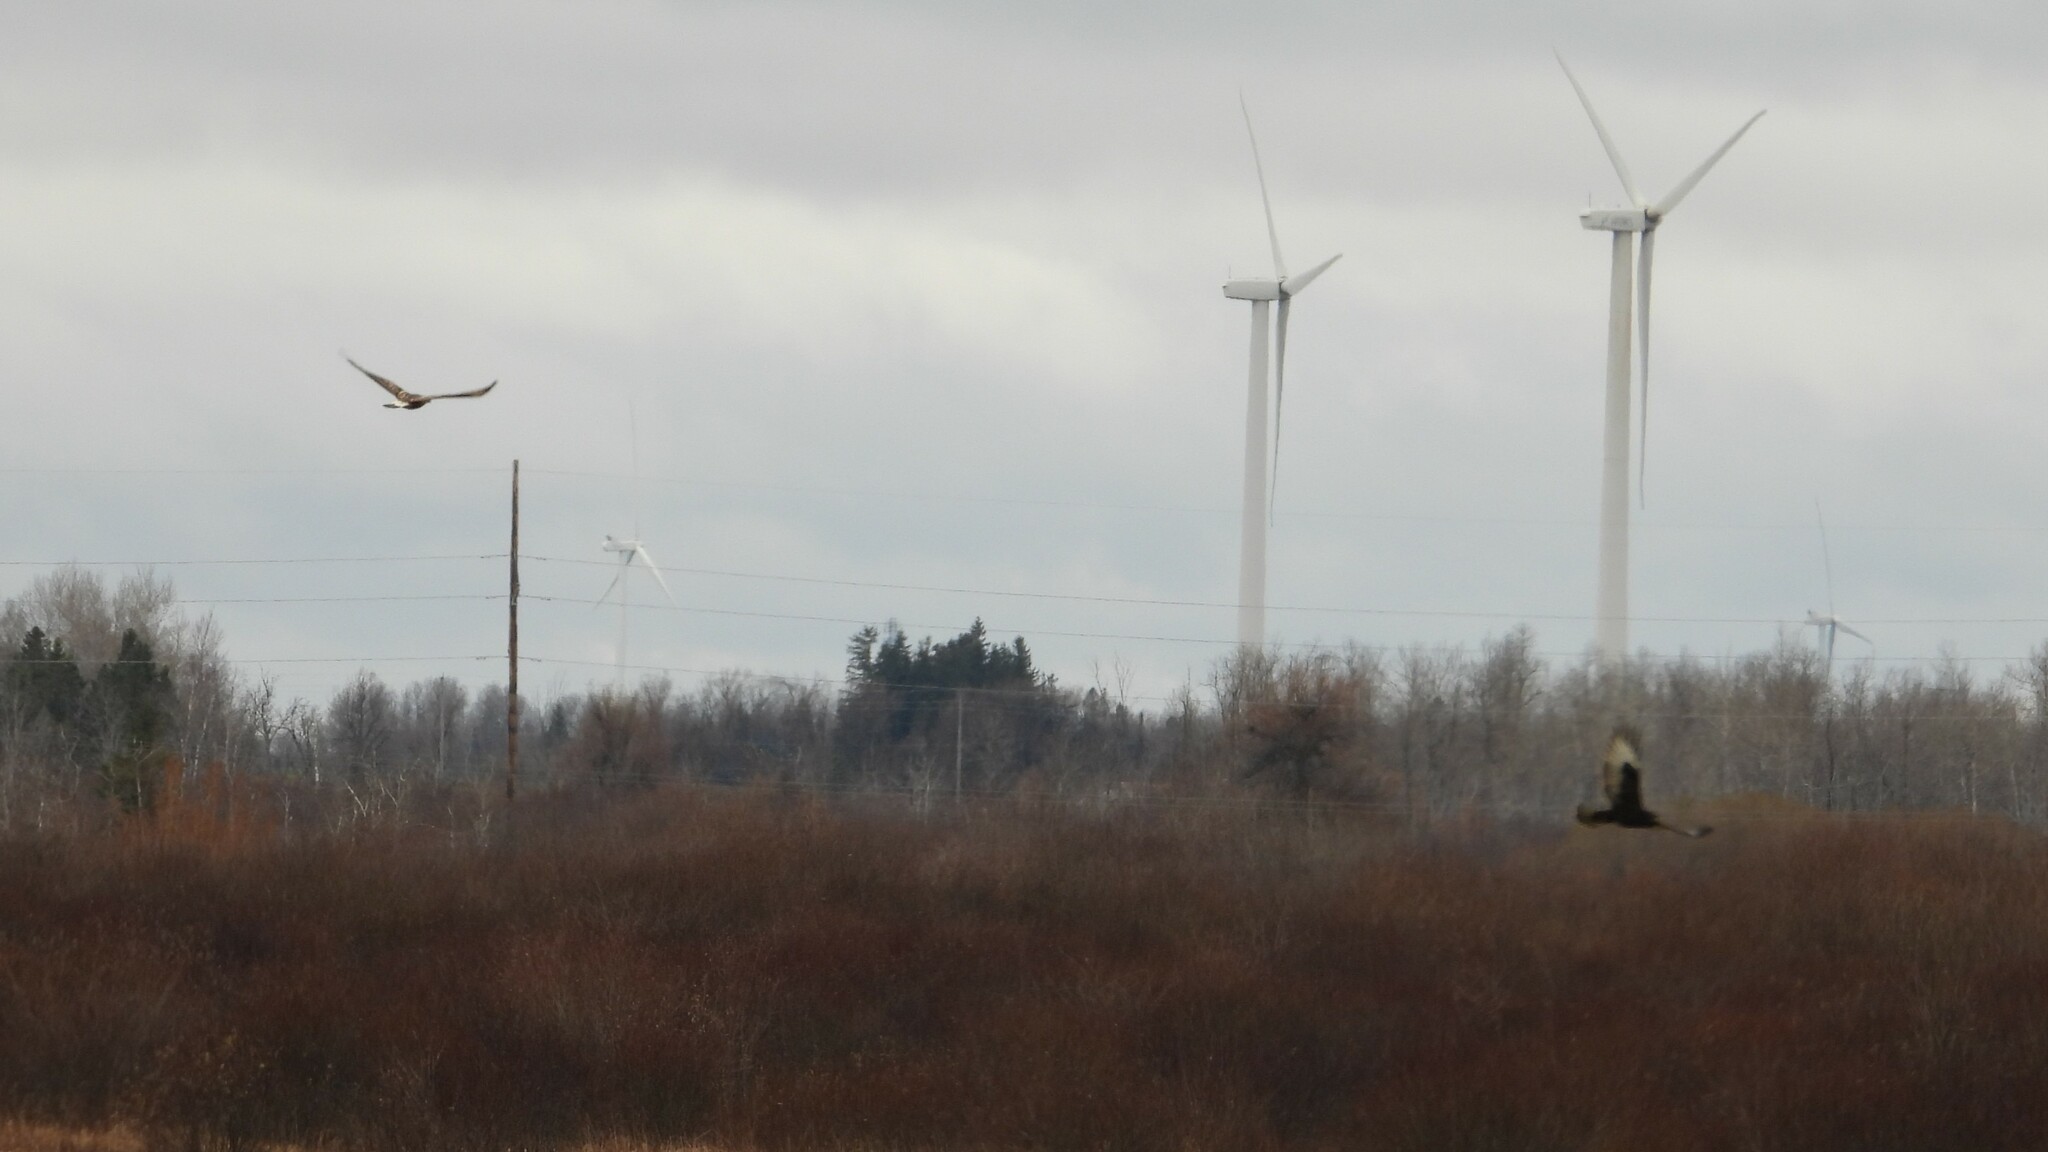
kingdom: Animalia
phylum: Chordata
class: Aves
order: Accipitriformes
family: Accipitridae
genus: Buteo
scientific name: Buteo lagopus
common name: Rough-legged buzzard
